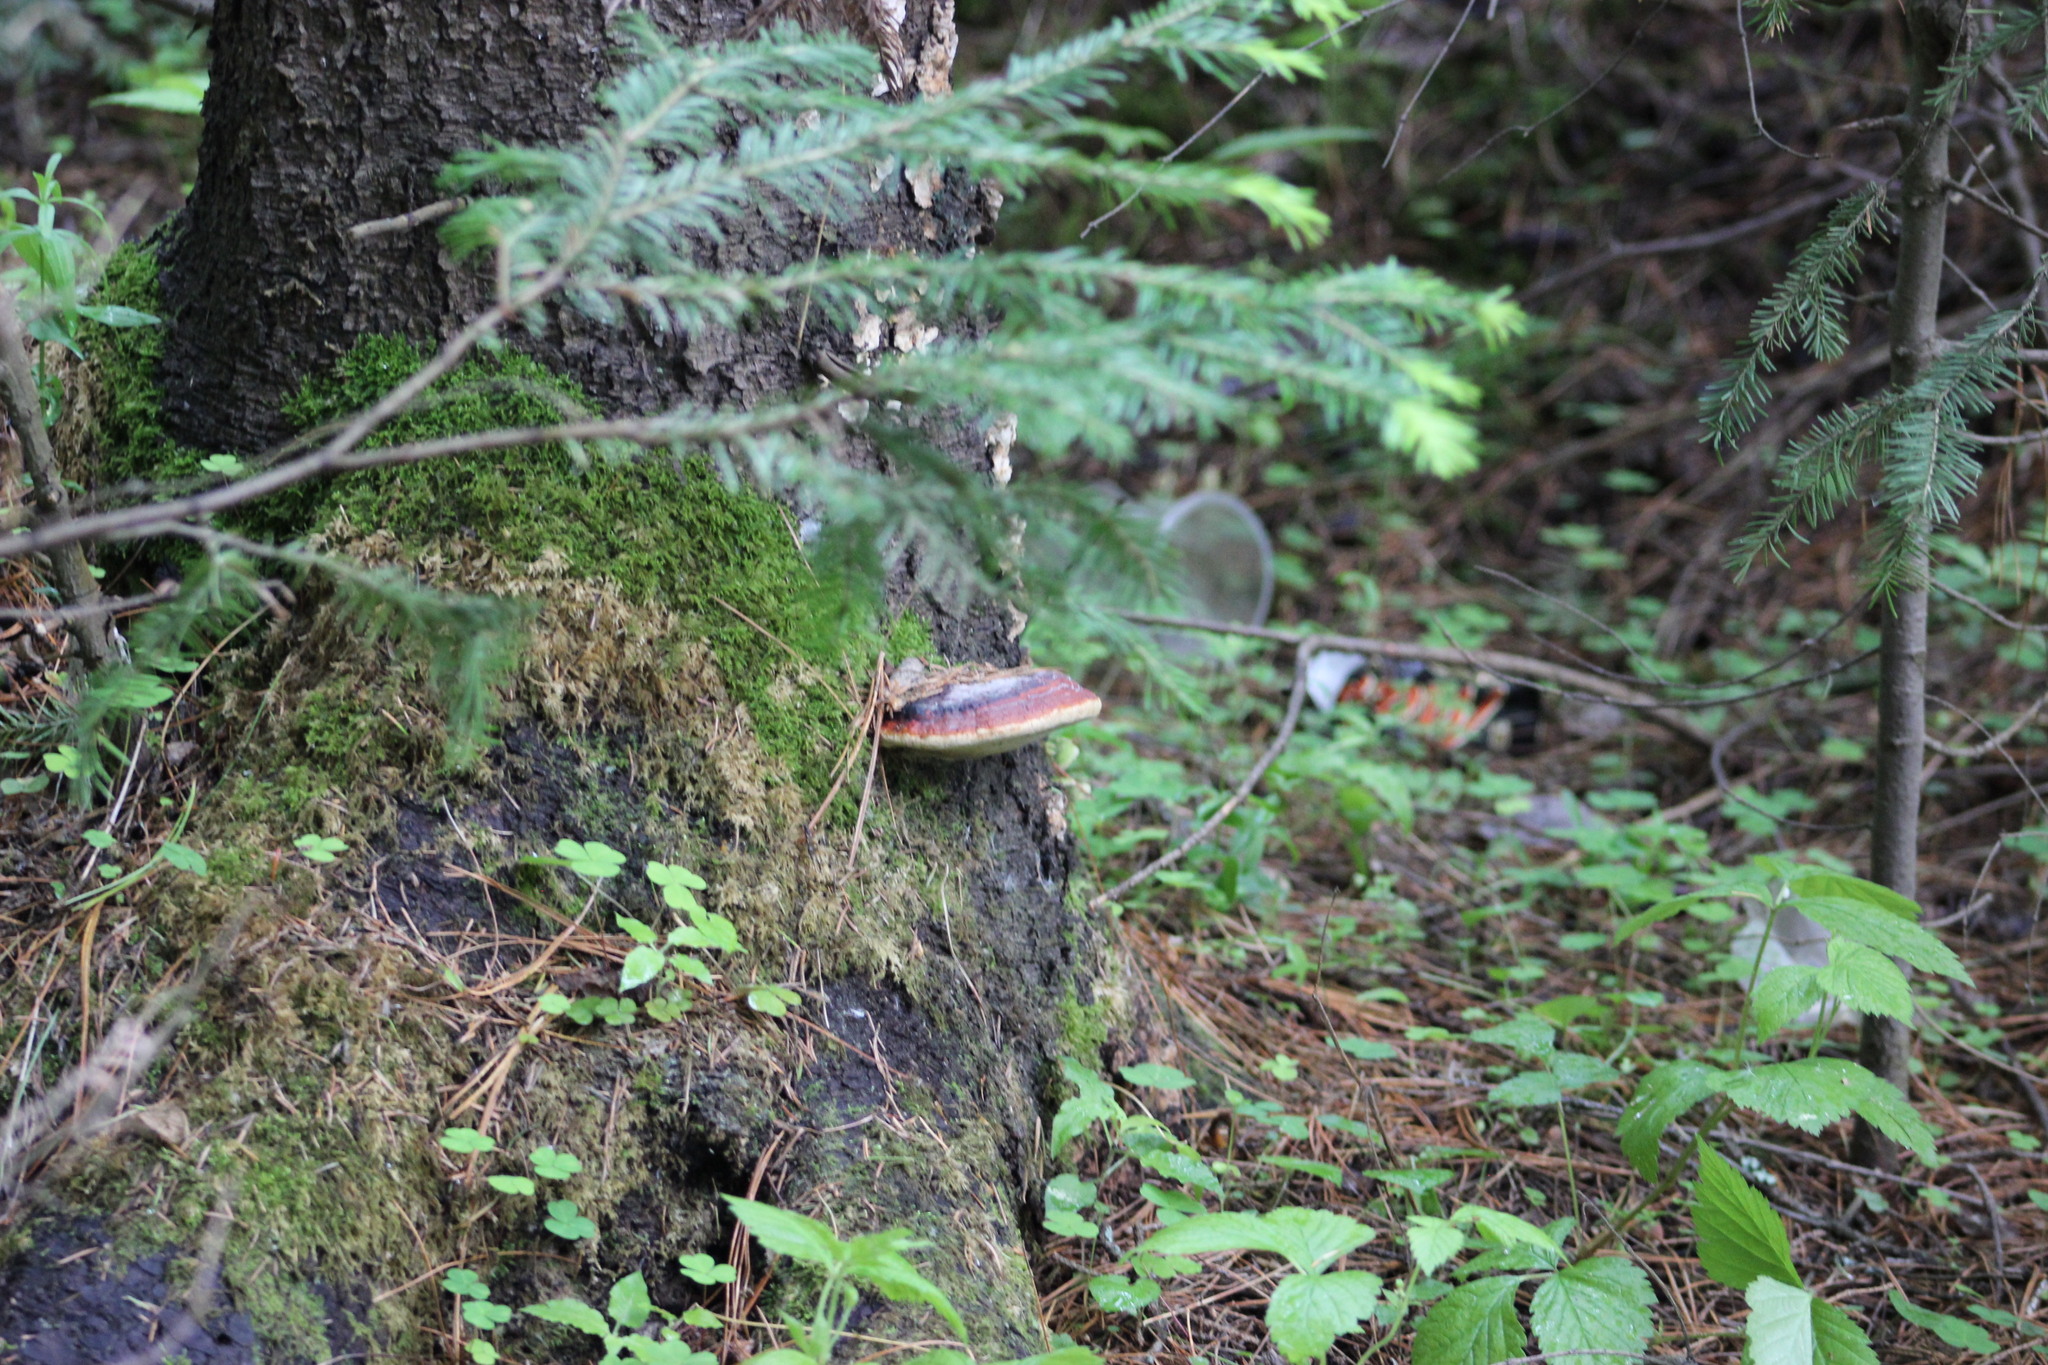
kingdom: Fungi
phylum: Basidiomycota
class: Agaricomycetes
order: Polyporales
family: Fomitopsidaceae
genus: Fomitopsis
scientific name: Fomitopsis pinicola
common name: Red-belted bracket
